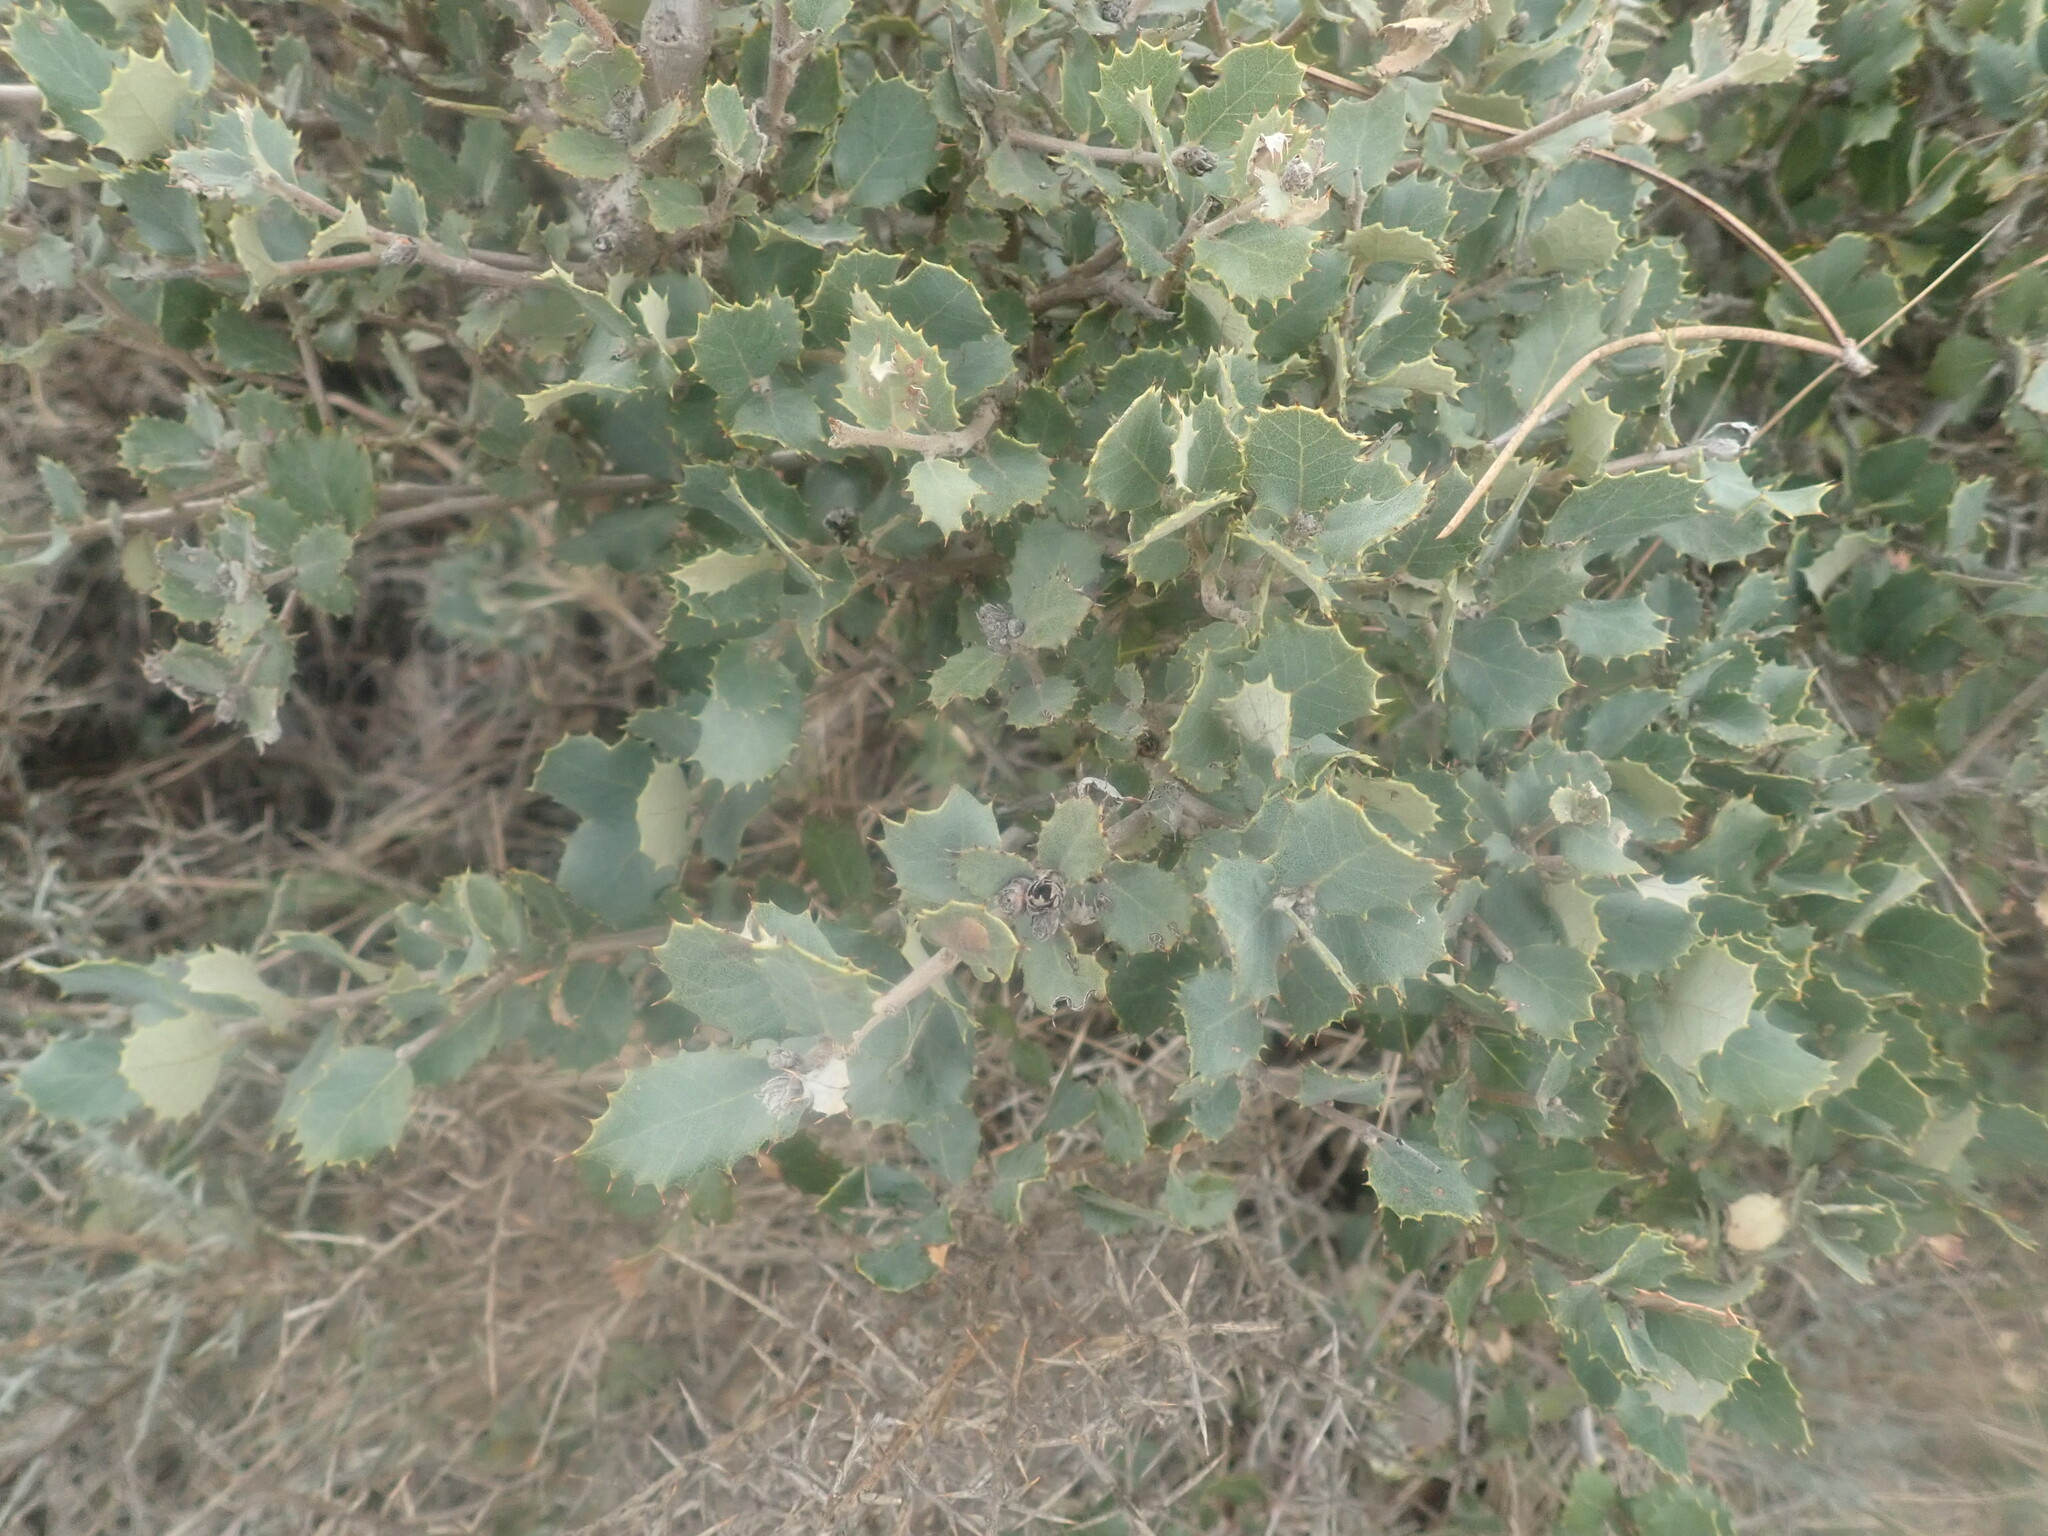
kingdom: Plantae
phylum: Tracheophyta
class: Magnoliopsida
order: Fagales
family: Fagaceae
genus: Quercus
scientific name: Quercus rotundifolia
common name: Holm oak
